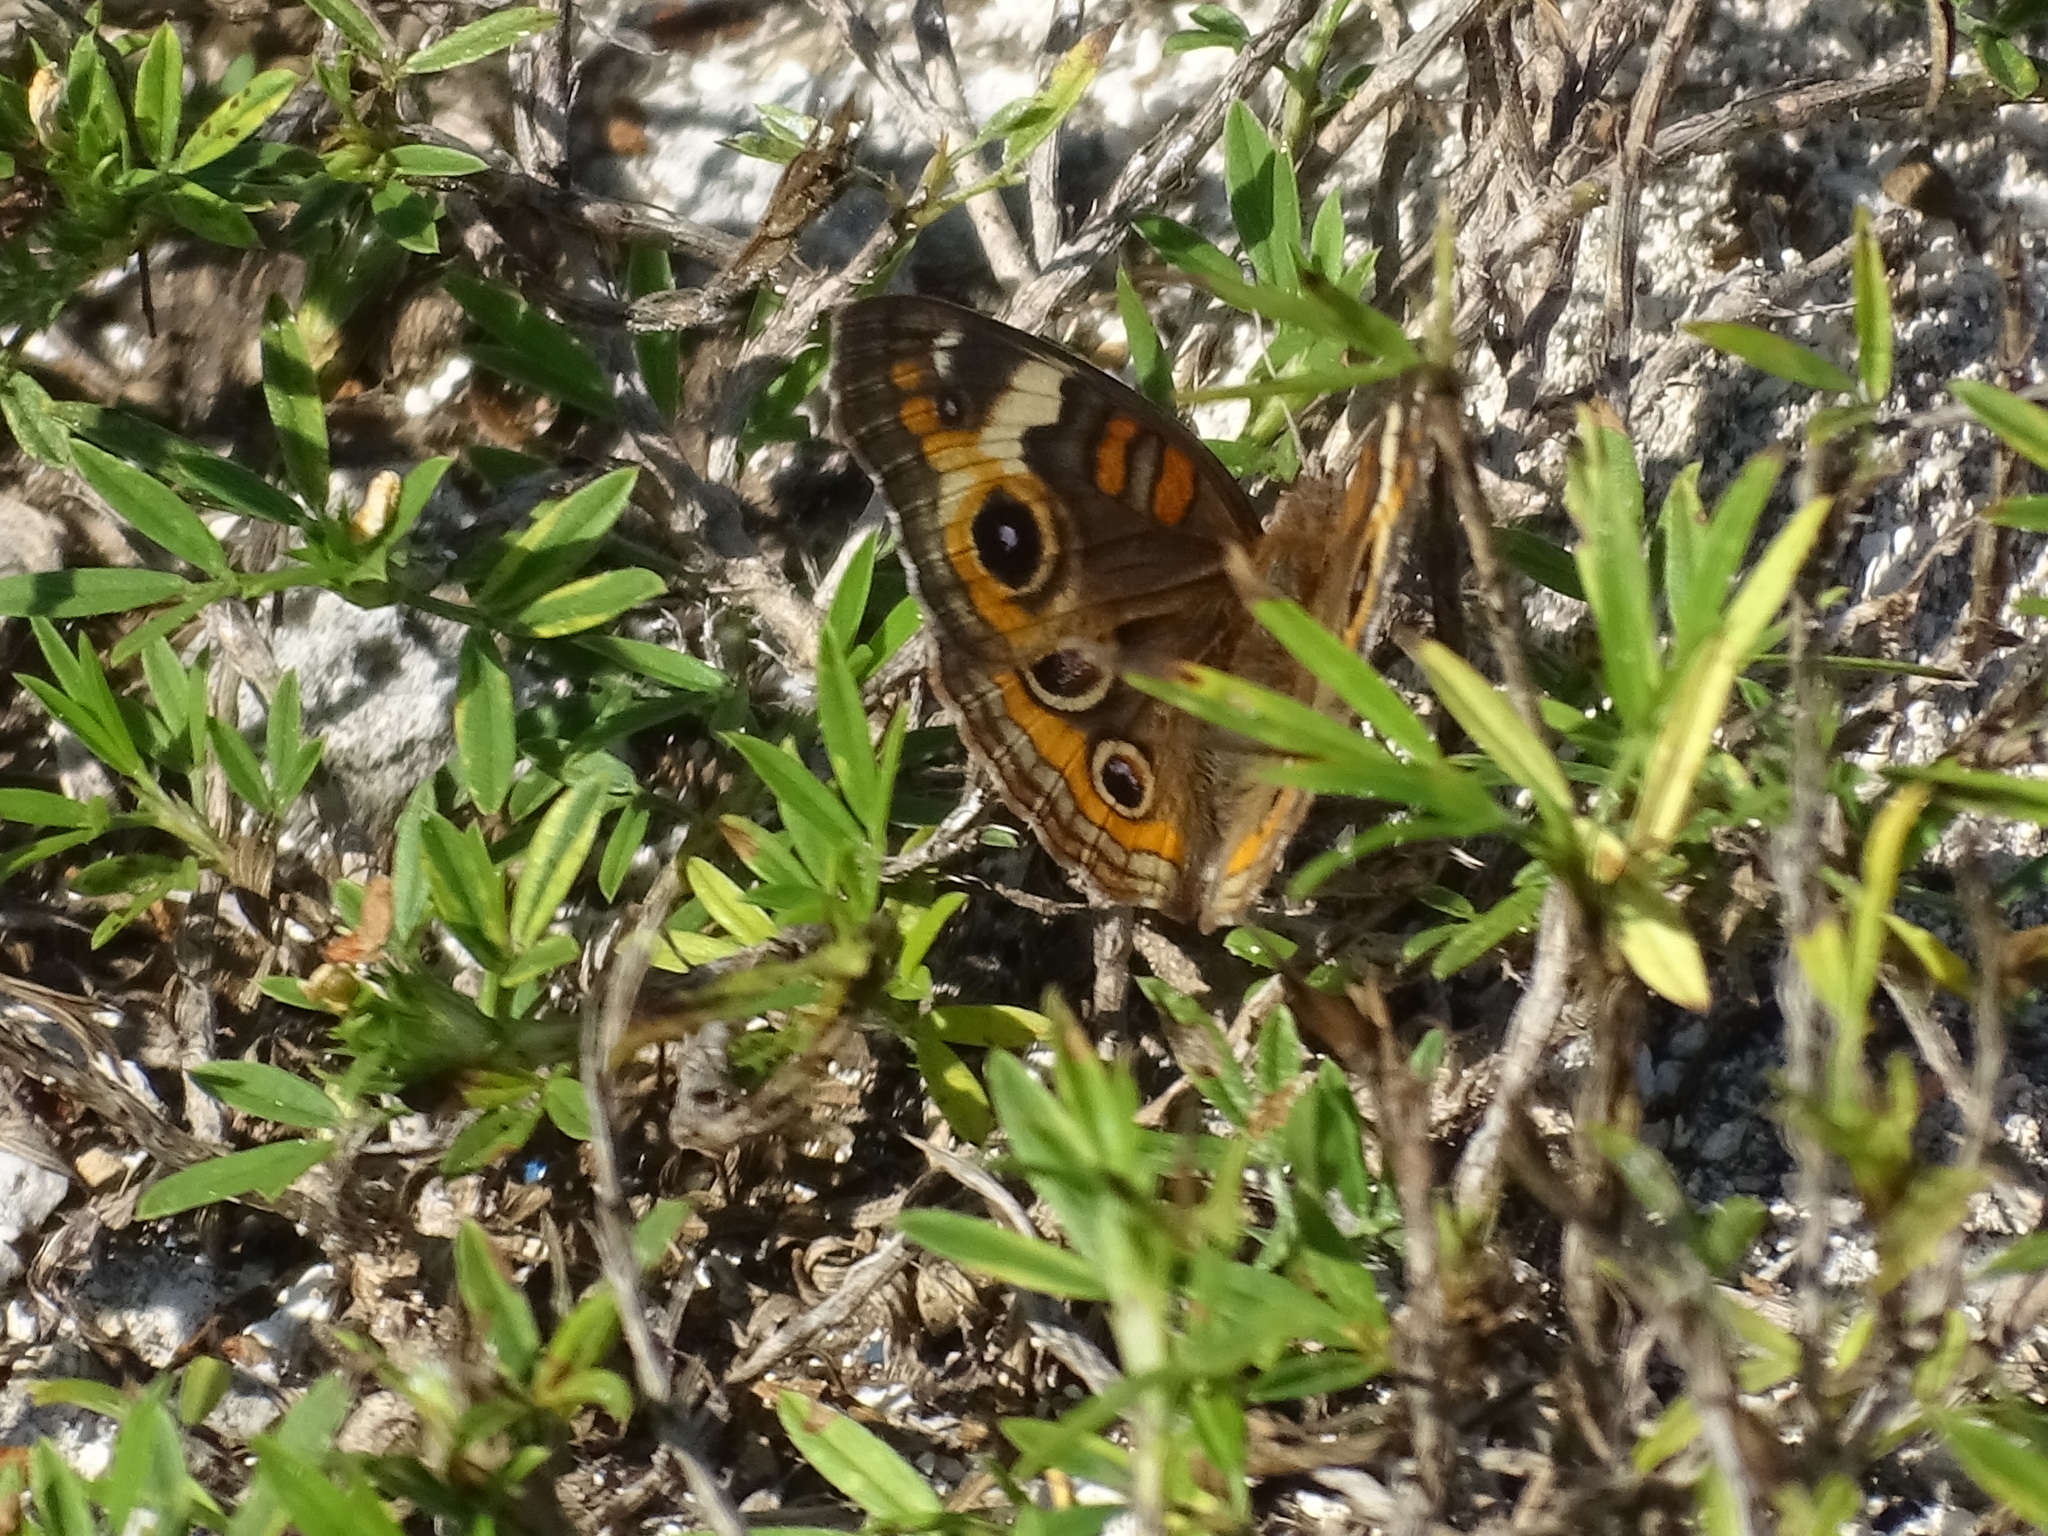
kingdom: Animalia
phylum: Arthropoda
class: Insecta
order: Lepidoptera
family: Nymphalidae
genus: Junonia
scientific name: Junonia coenia
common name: Common buckeye
